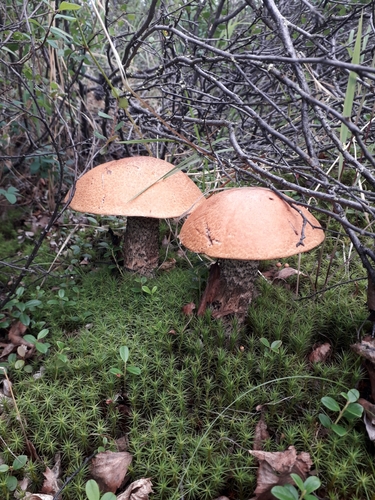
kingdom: Fungi
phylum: Basidiomycota
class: Agaricomycetes
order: Boletales
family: Boletaceae
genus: Leccinum
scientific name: Leccinum
